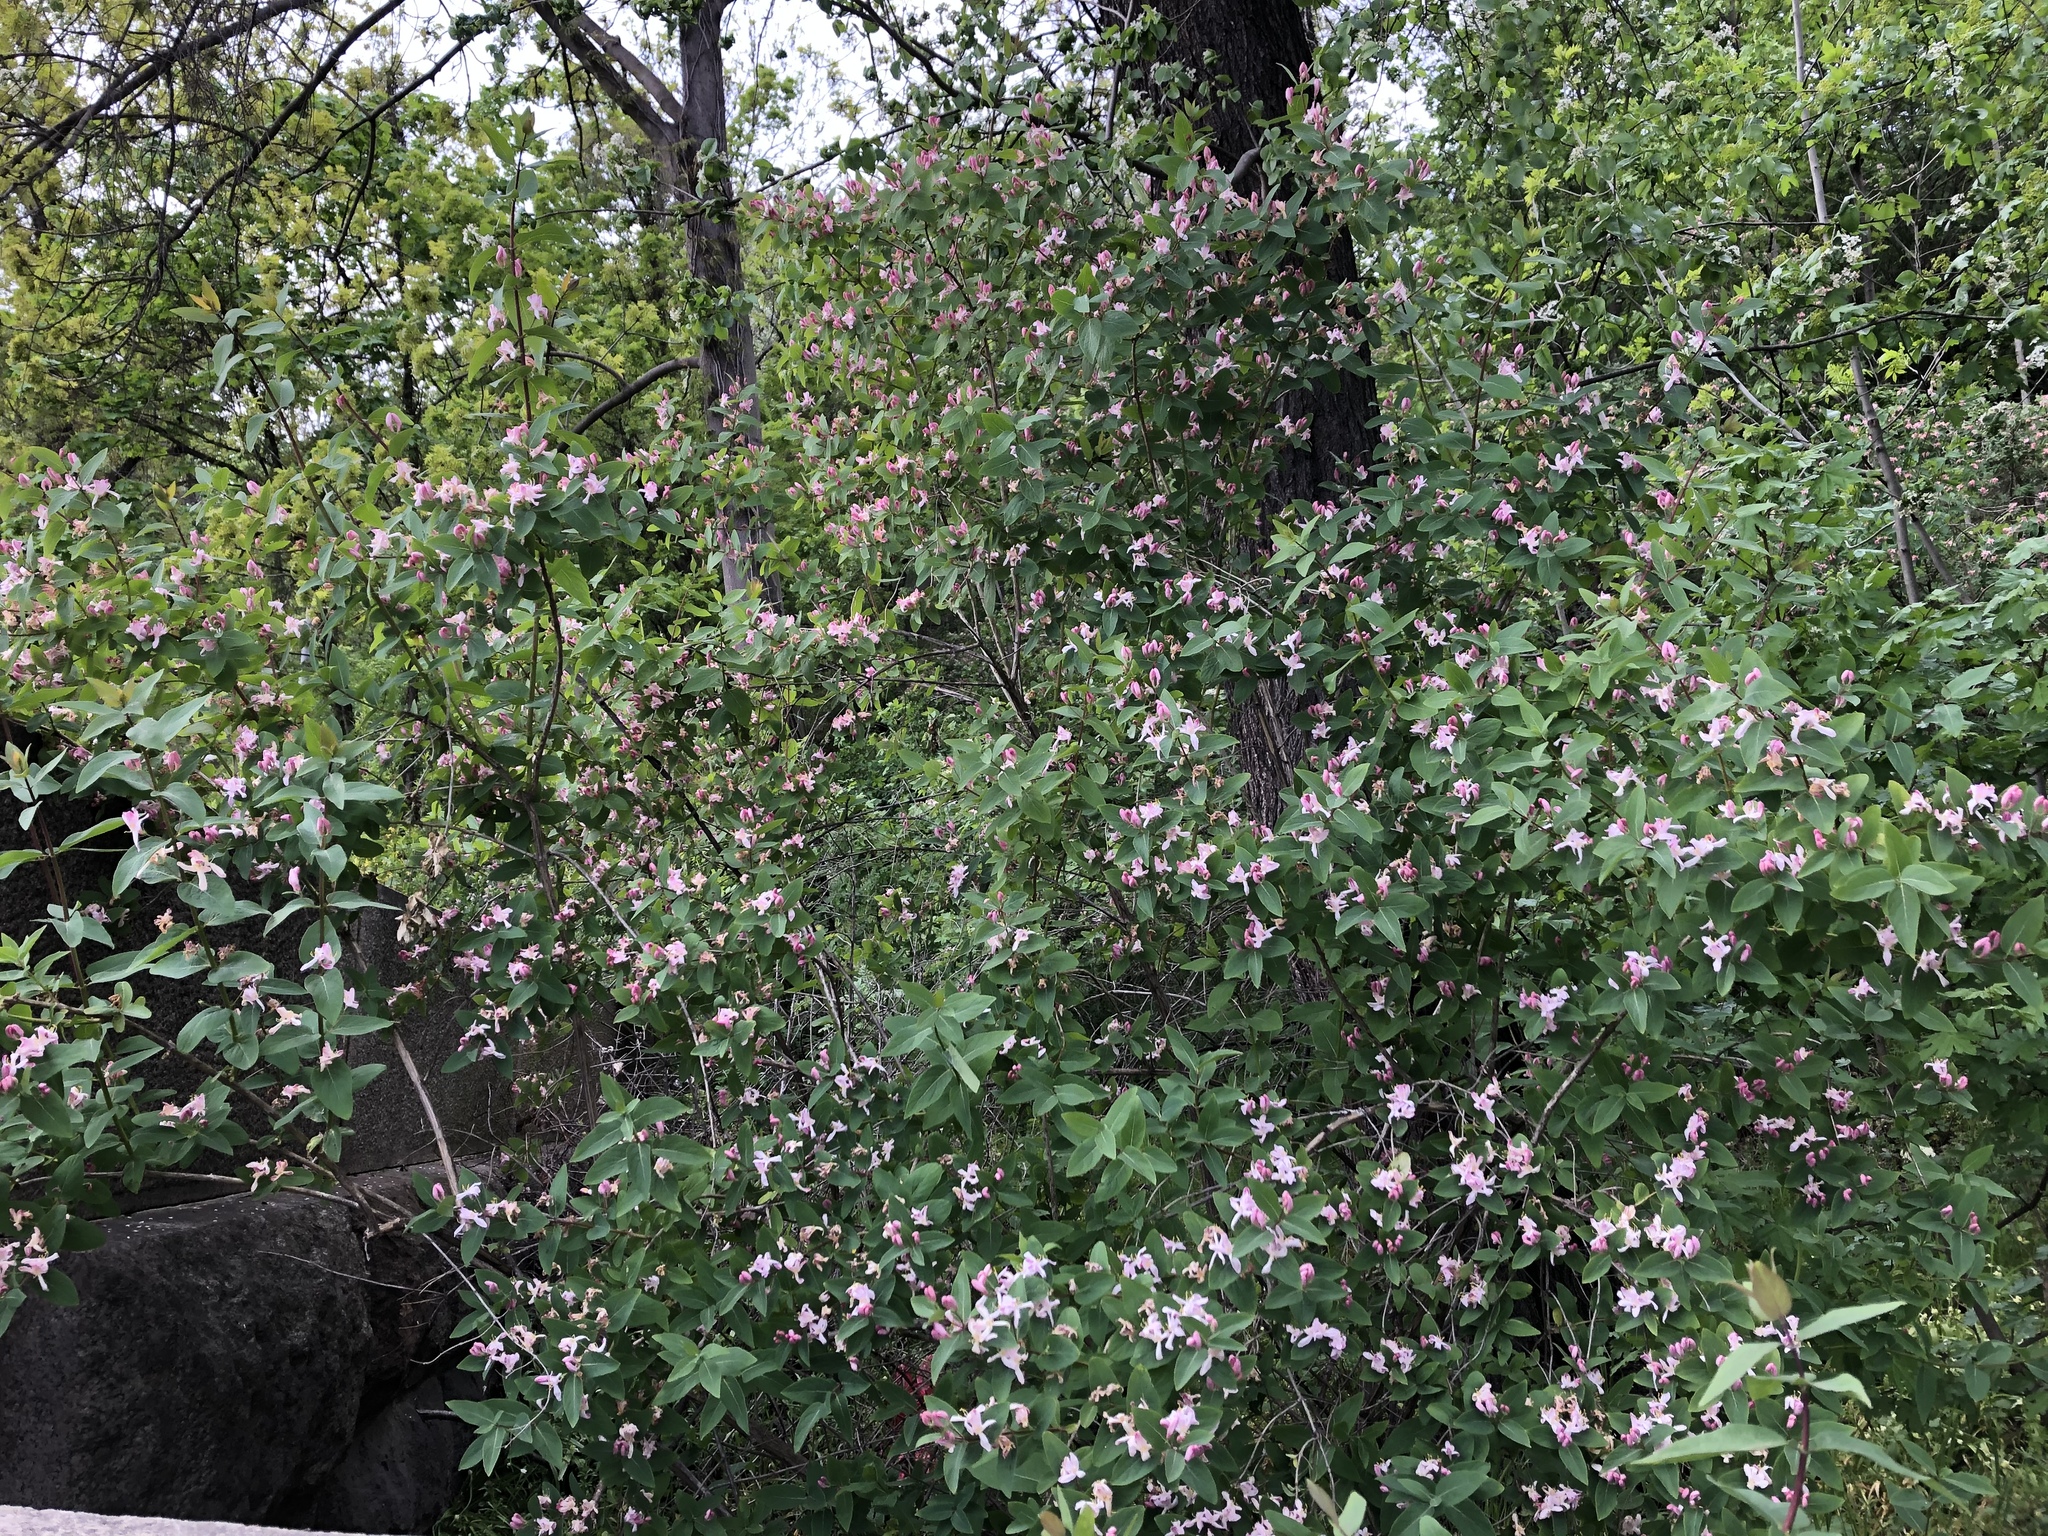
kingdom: Plantae
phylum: Tracheophyta
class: Magnoliopsida
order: Dipsacales
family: Caprifoliaceae
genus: Lonicera
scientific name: Lonicera tatarica
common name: Tatarian honeysuckle
